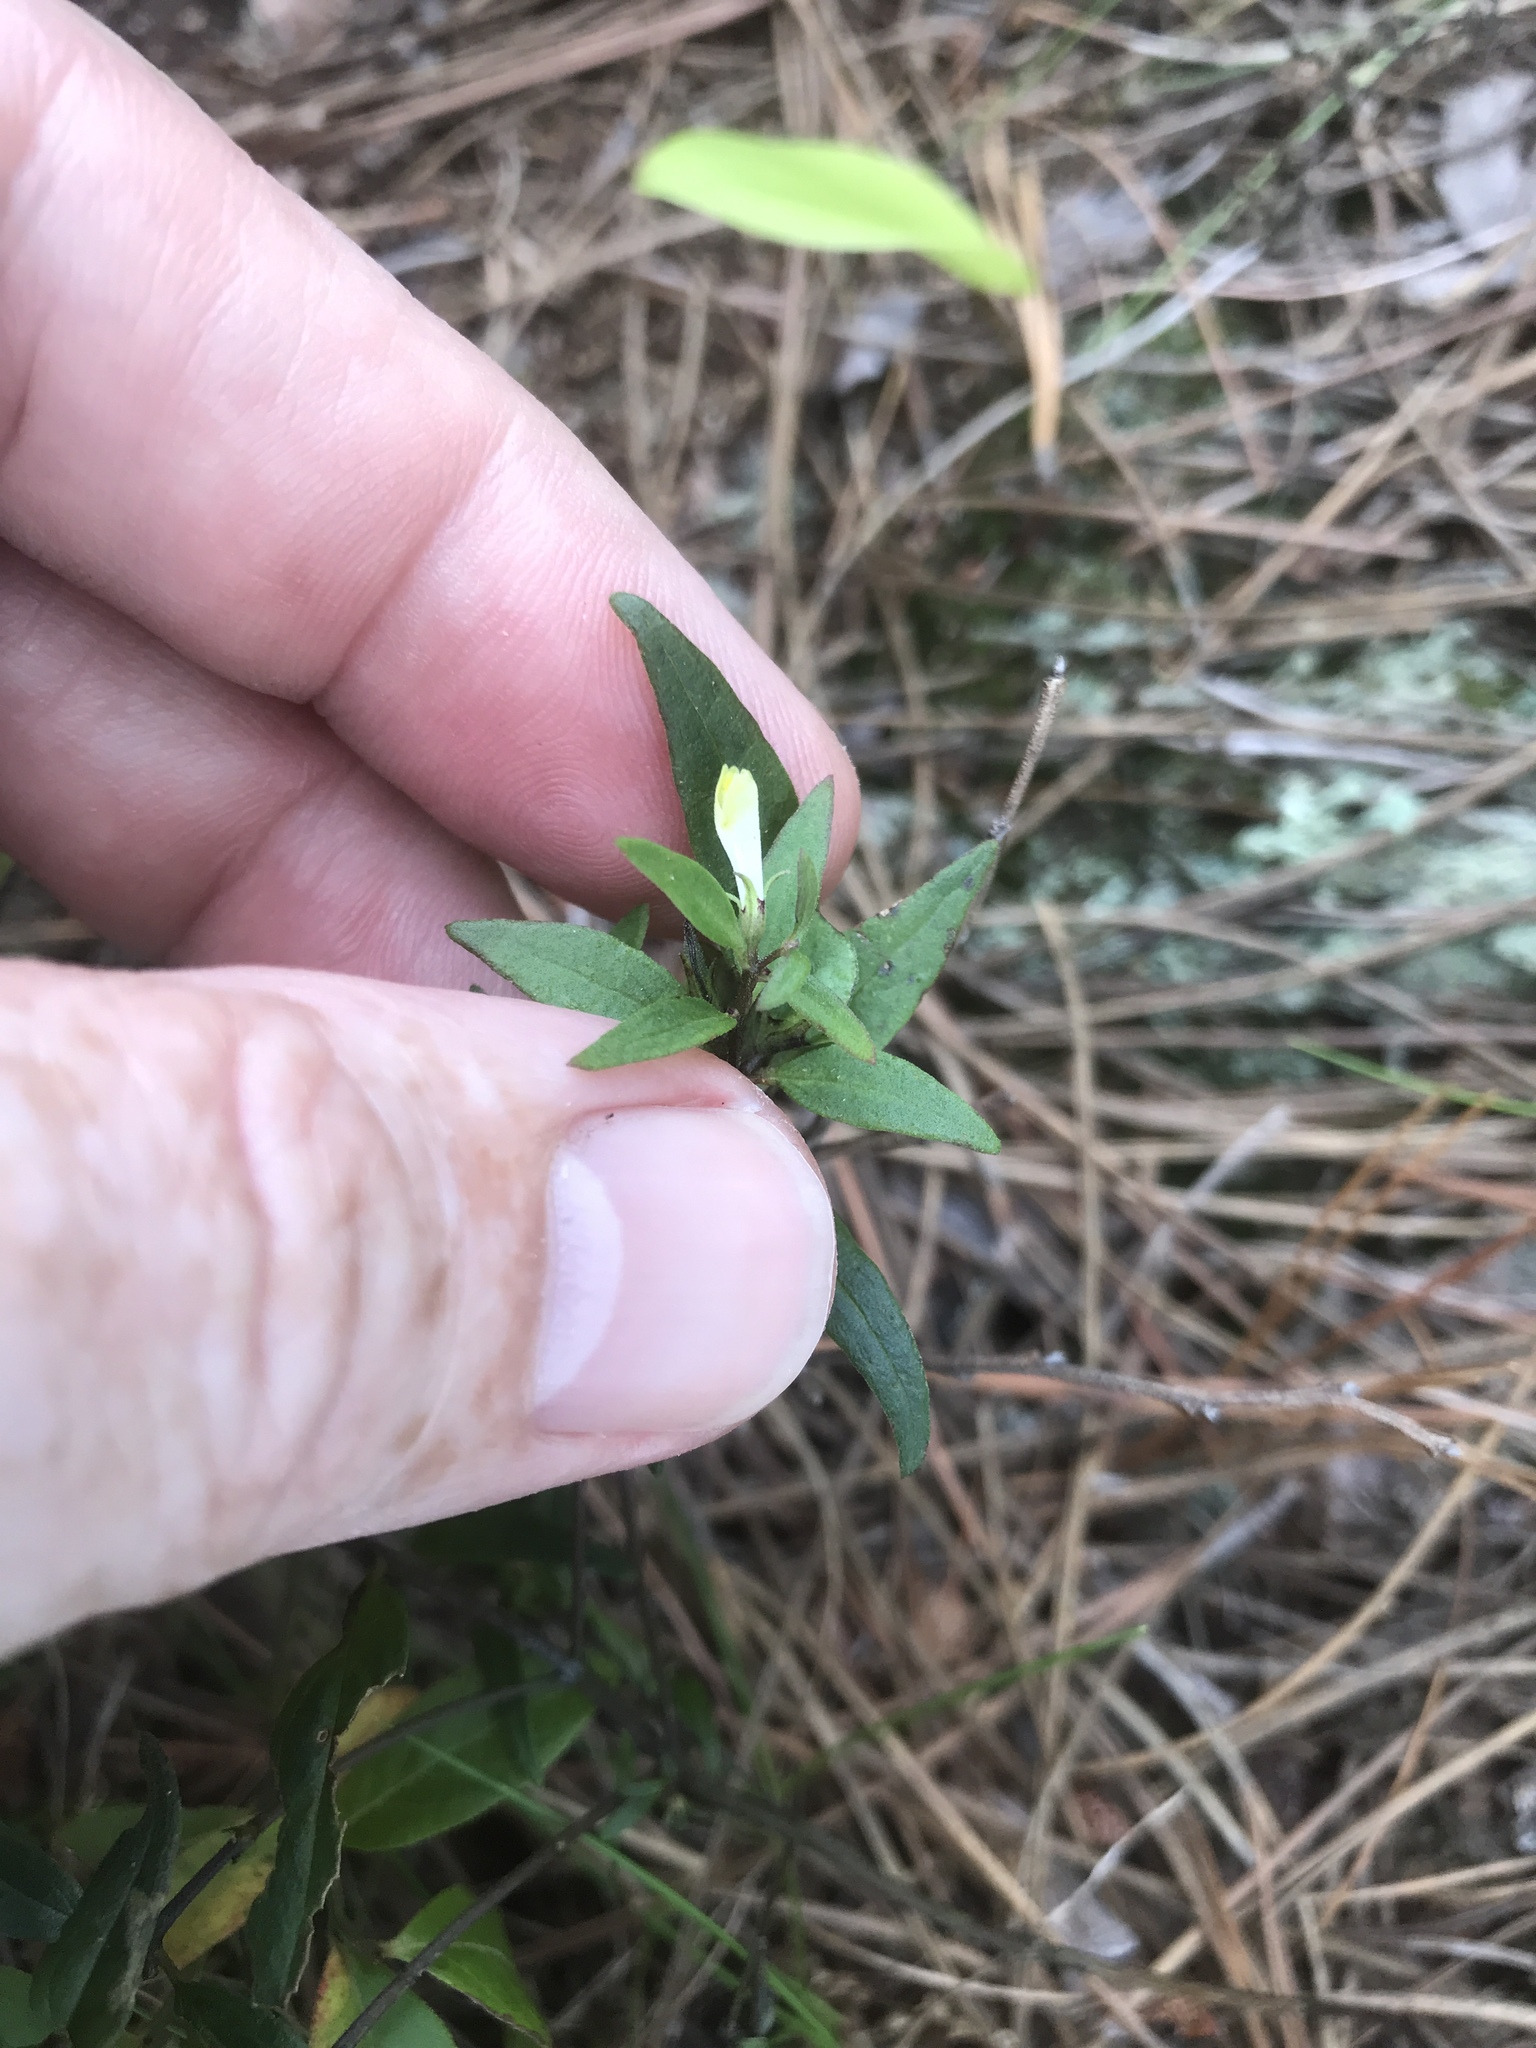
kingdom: Plantae
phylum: Tracheophyta
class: Magnoliopsida
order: Lamiales
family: Orobanchaceae
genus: Melampyrum
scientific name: Melampyrum lineare
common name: American cow-wheat
